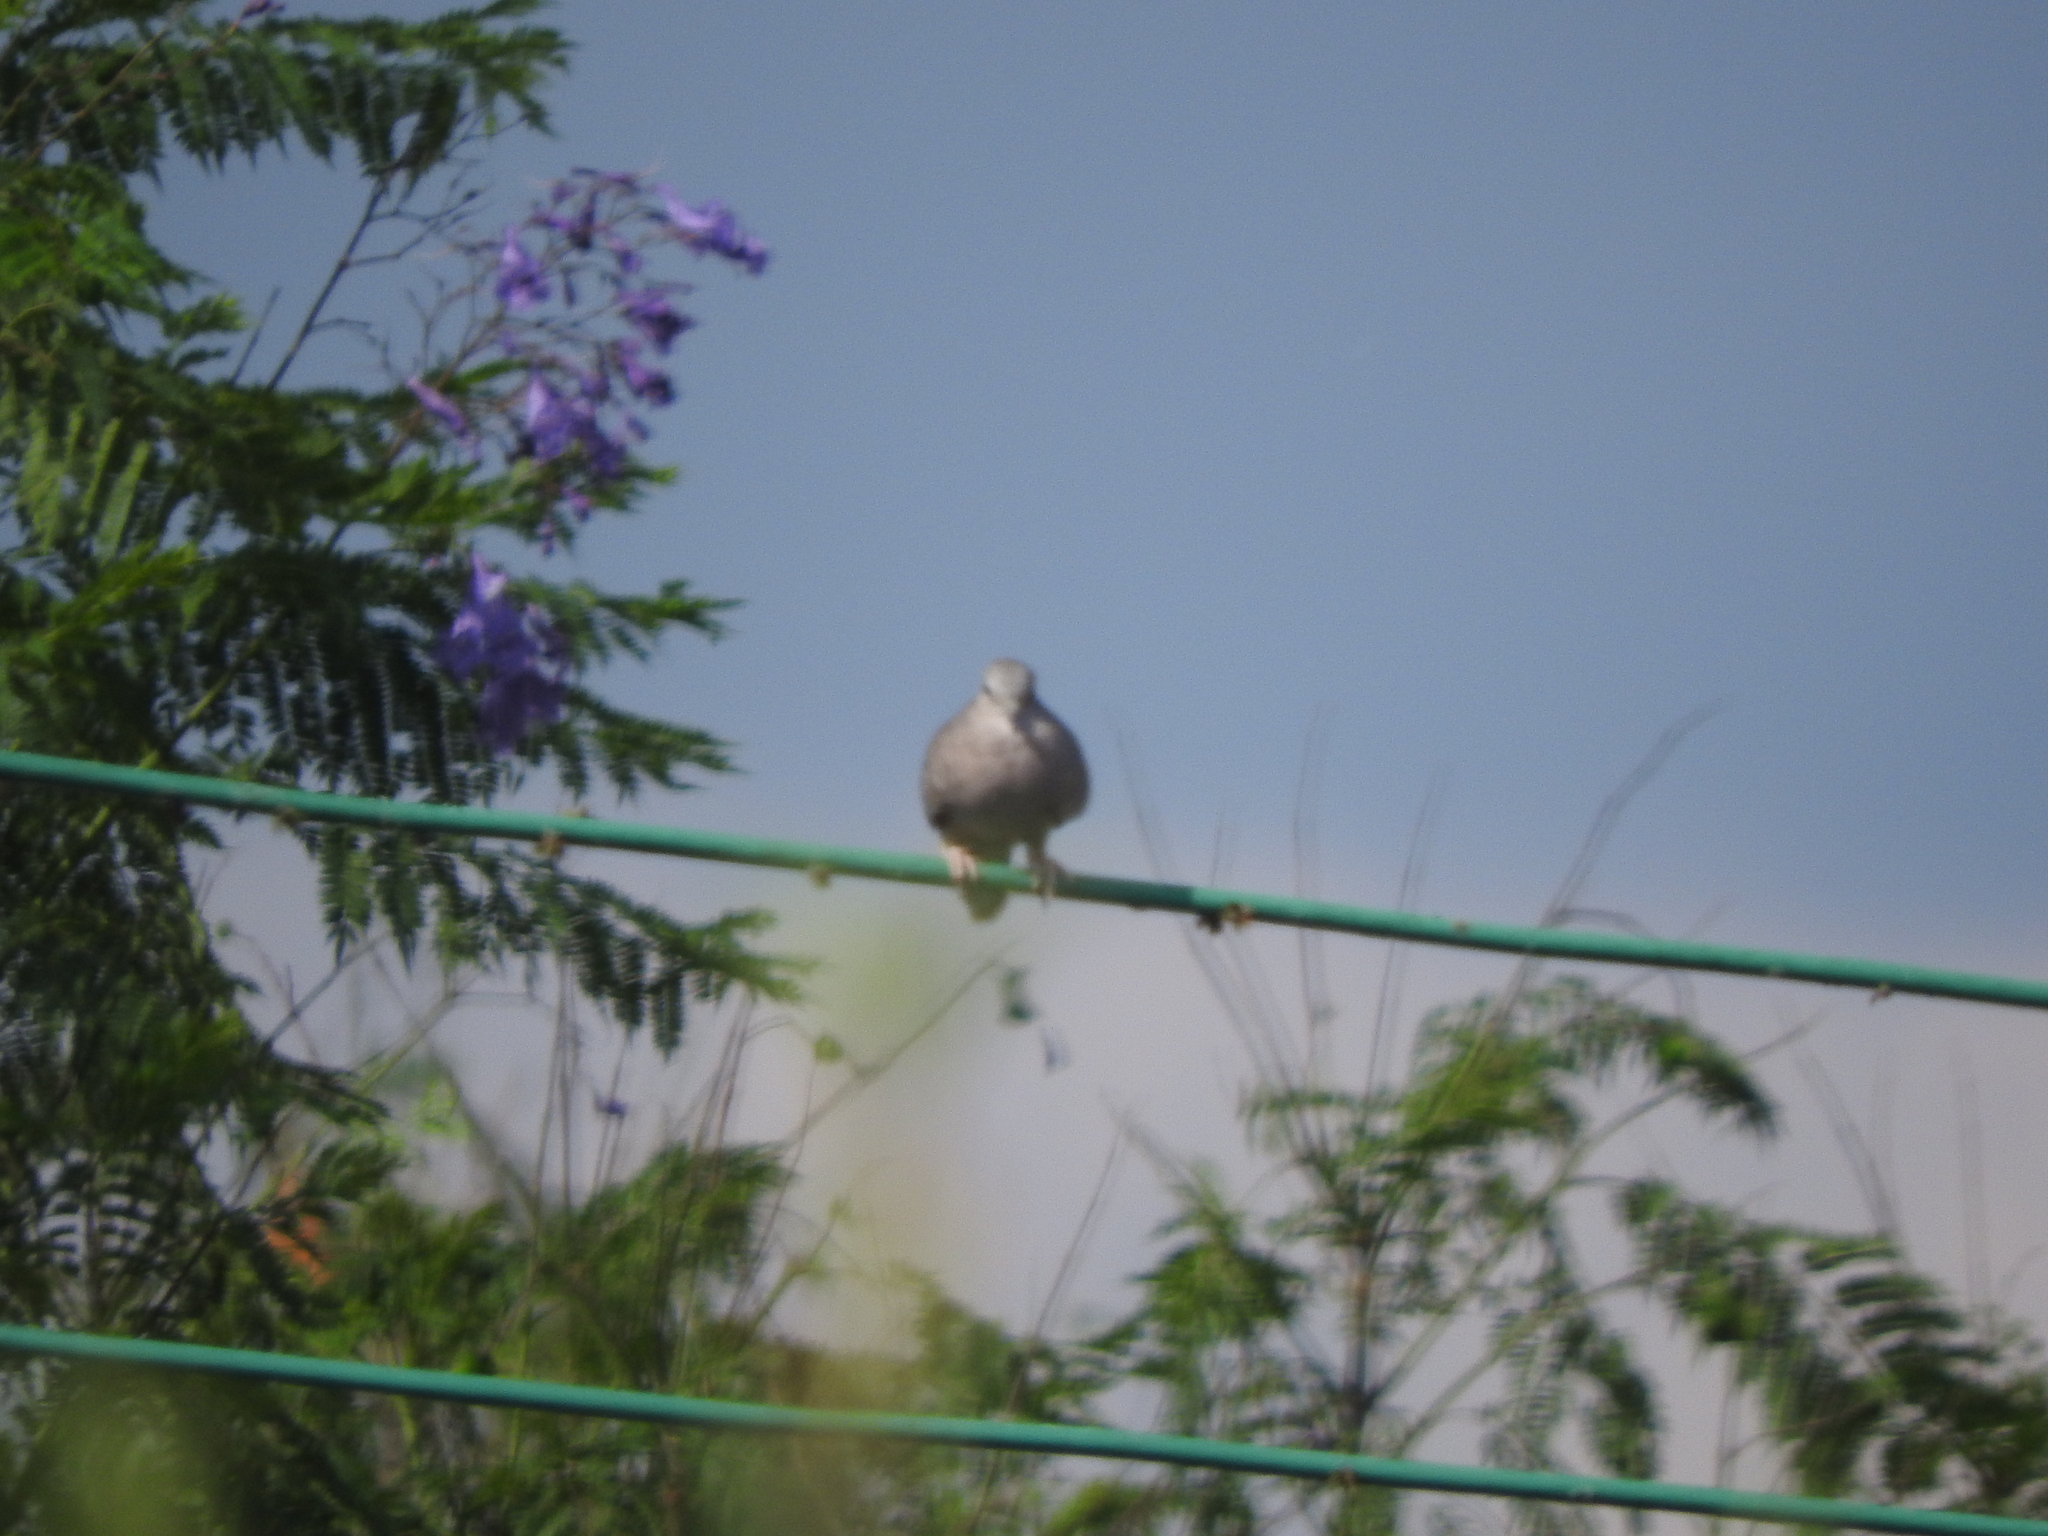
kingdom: Animalia
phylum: Chordata
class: Aves
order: Columbiformes
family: Columbidae
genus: Columbina
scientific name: Columbina inca
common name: Inca dove
